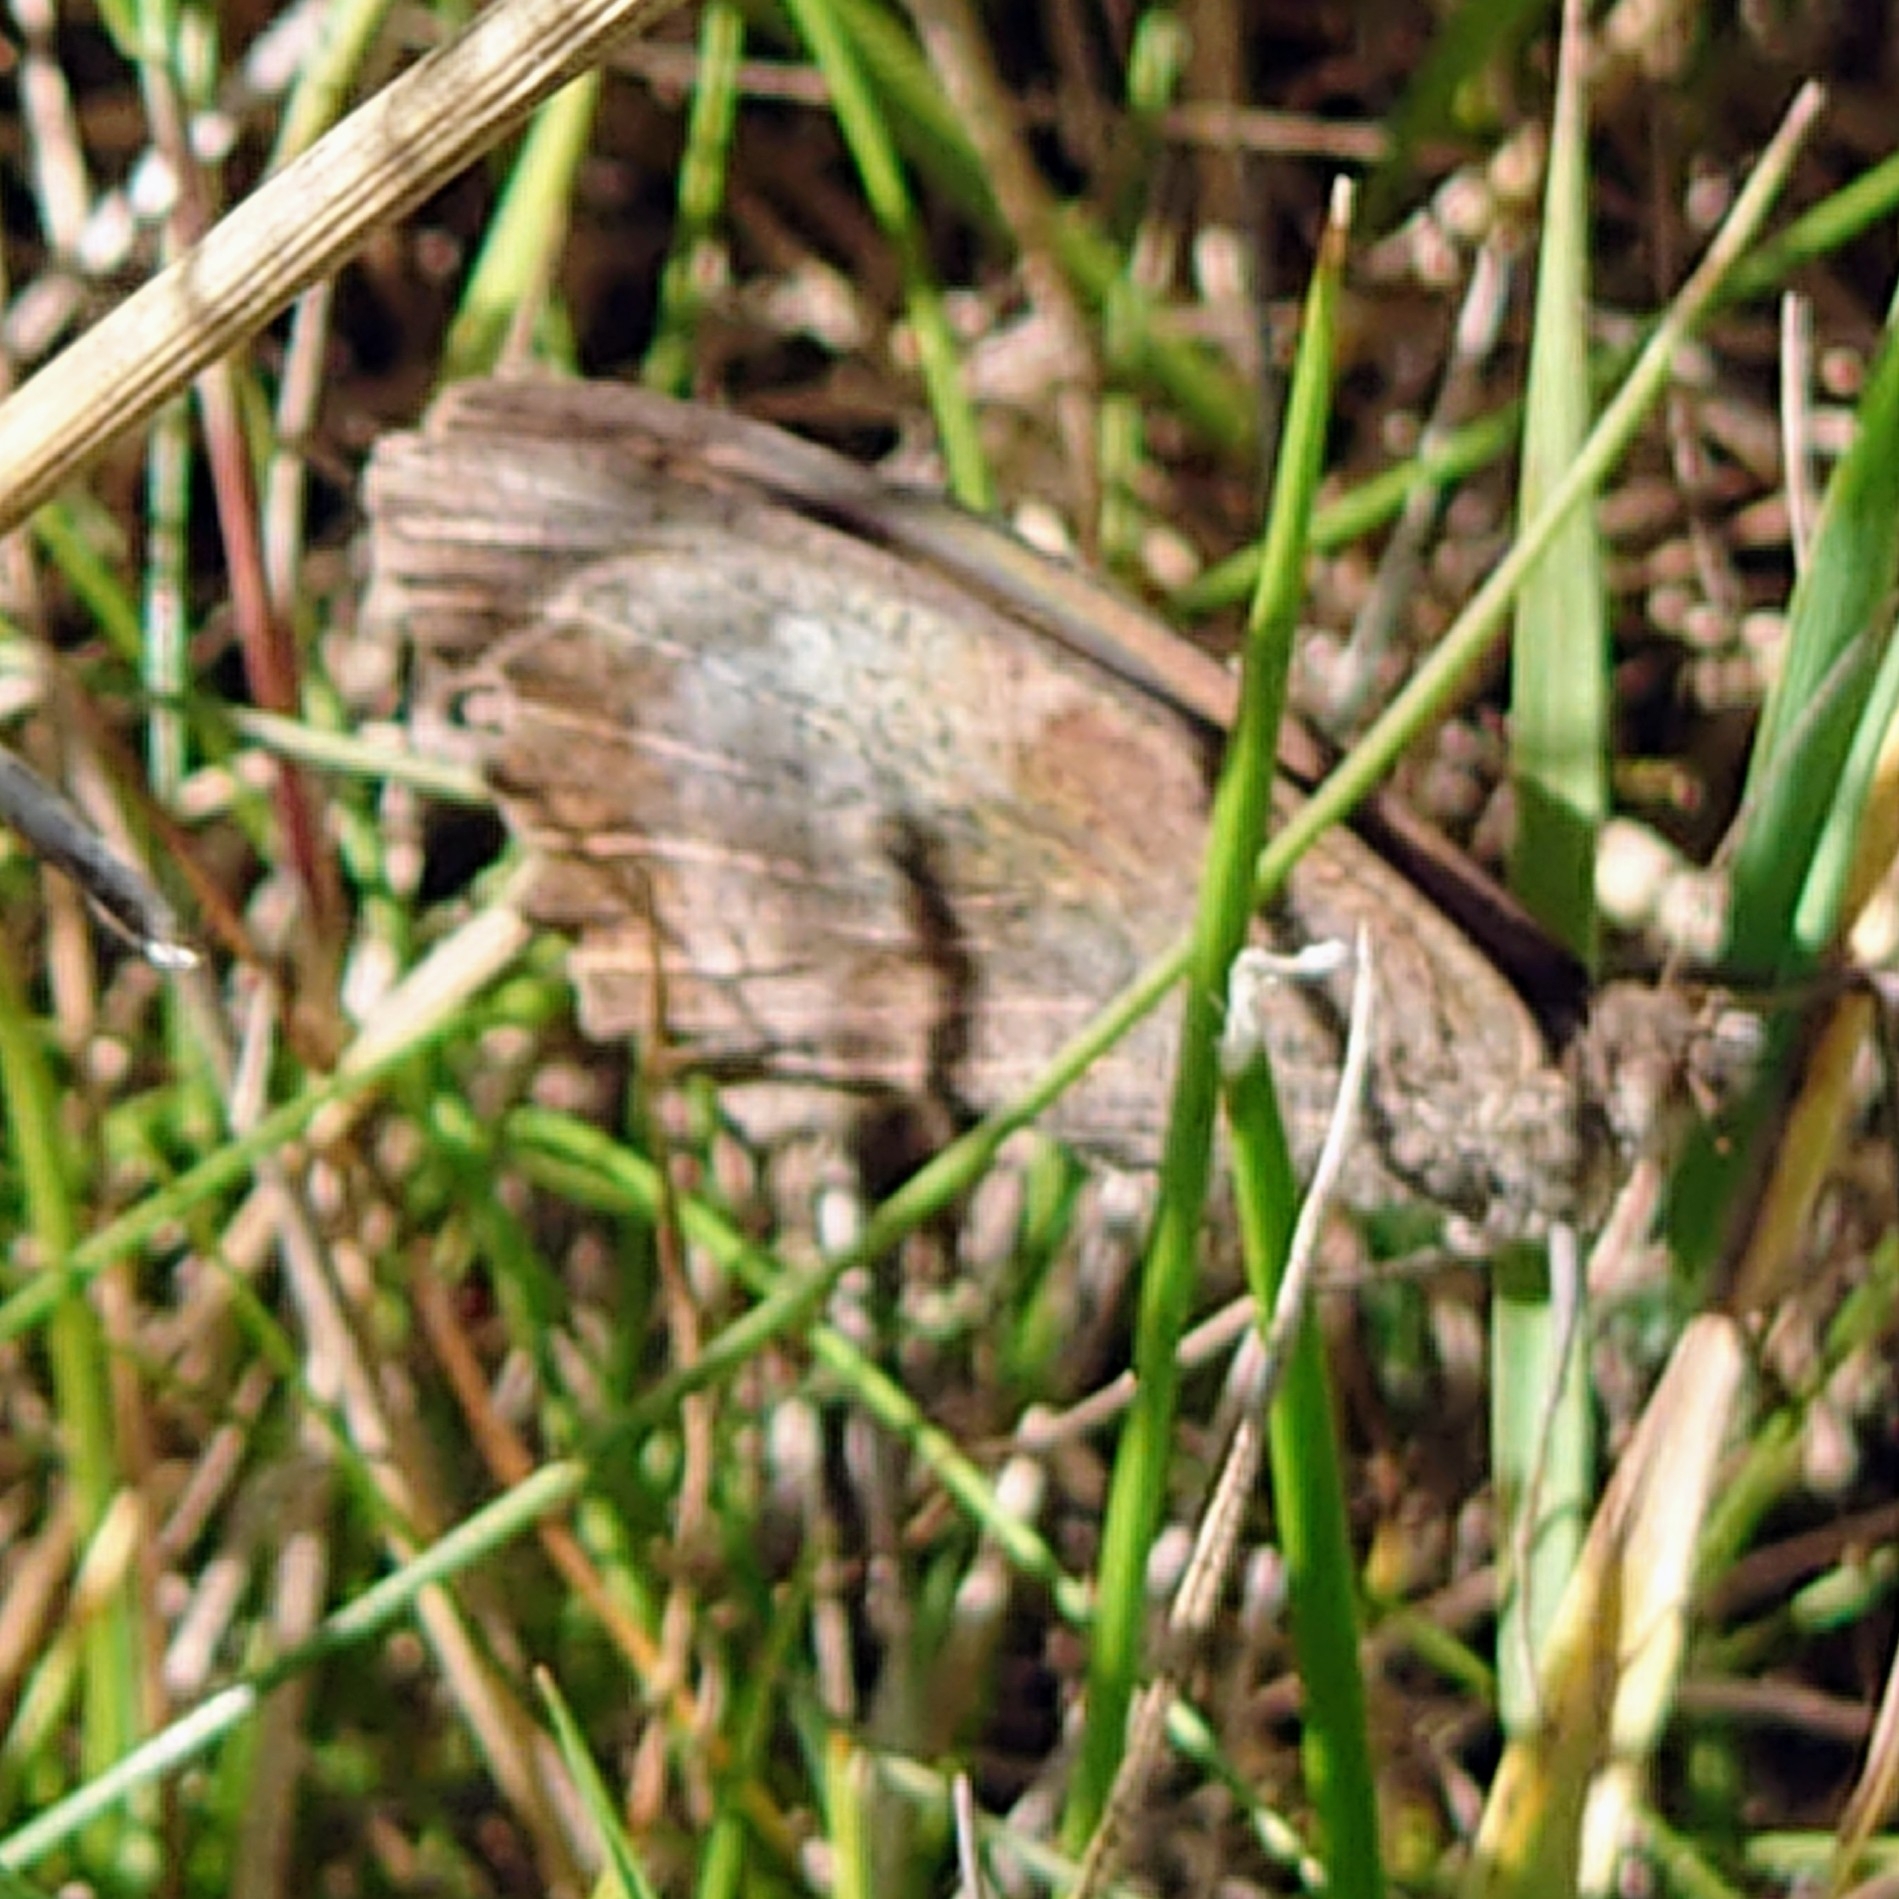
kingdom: Animalia
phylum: Arthropoda
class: Insecta
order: Lepidoptera
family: Nymphalidae
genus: Maniola
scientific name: Maniola jurtina
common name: Meadow brown
